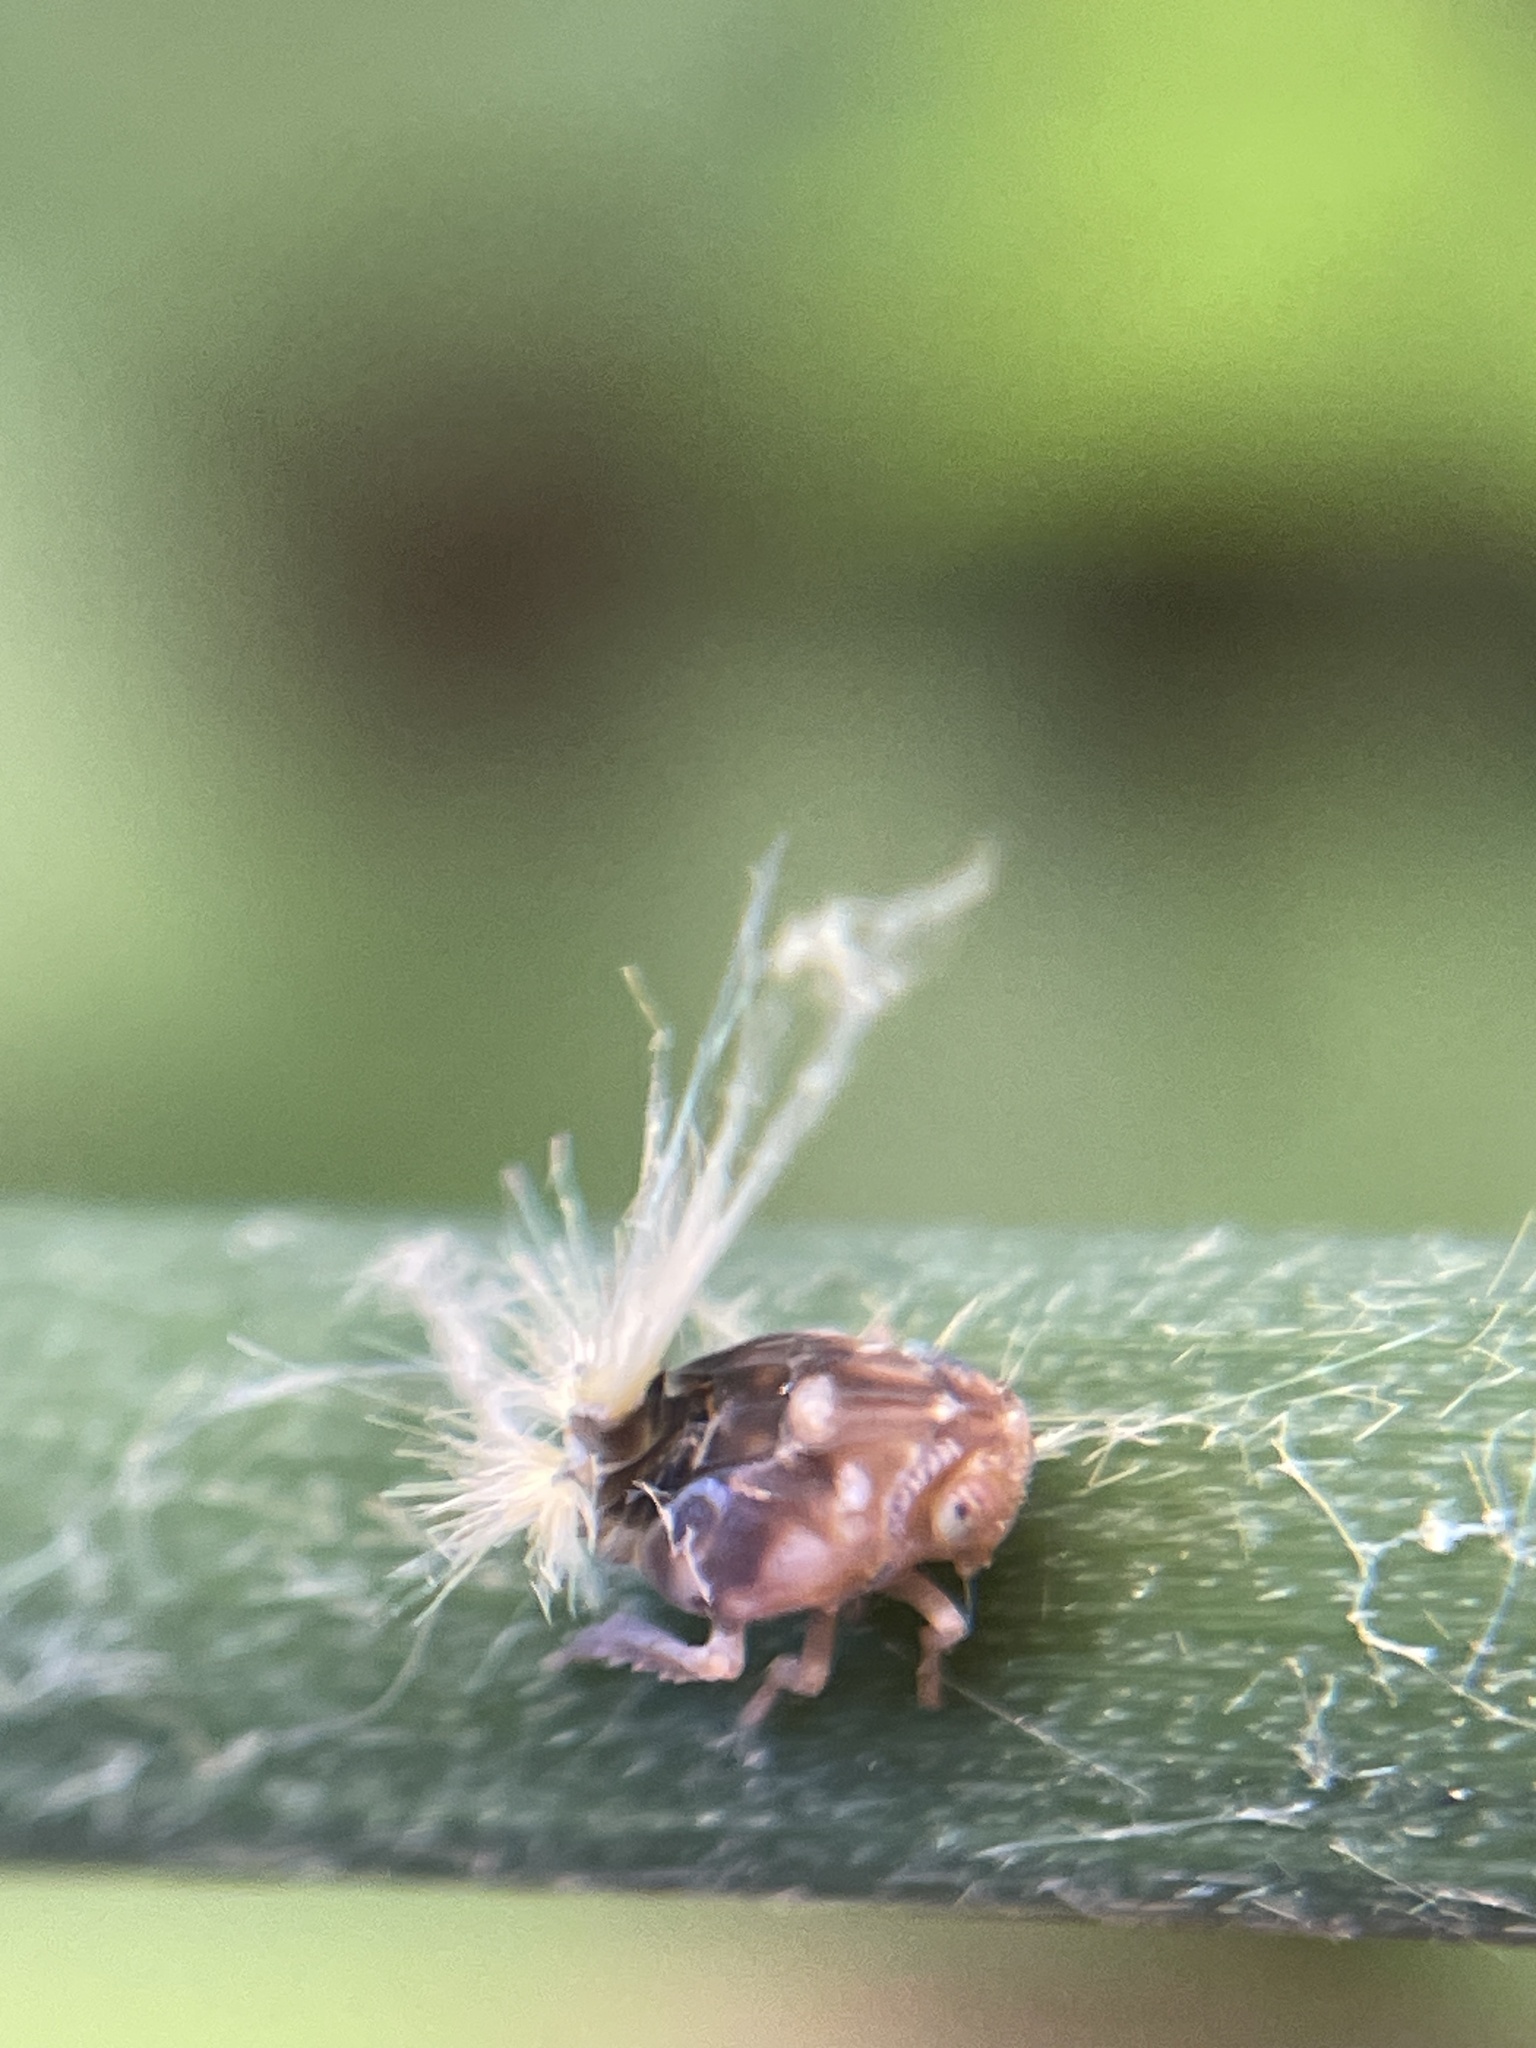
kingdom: Animalia
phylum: Arthropoda
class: Insecta
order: Hemiptera
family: Ricaniidae
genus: Scolypopa
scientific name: Scolypopa australis
